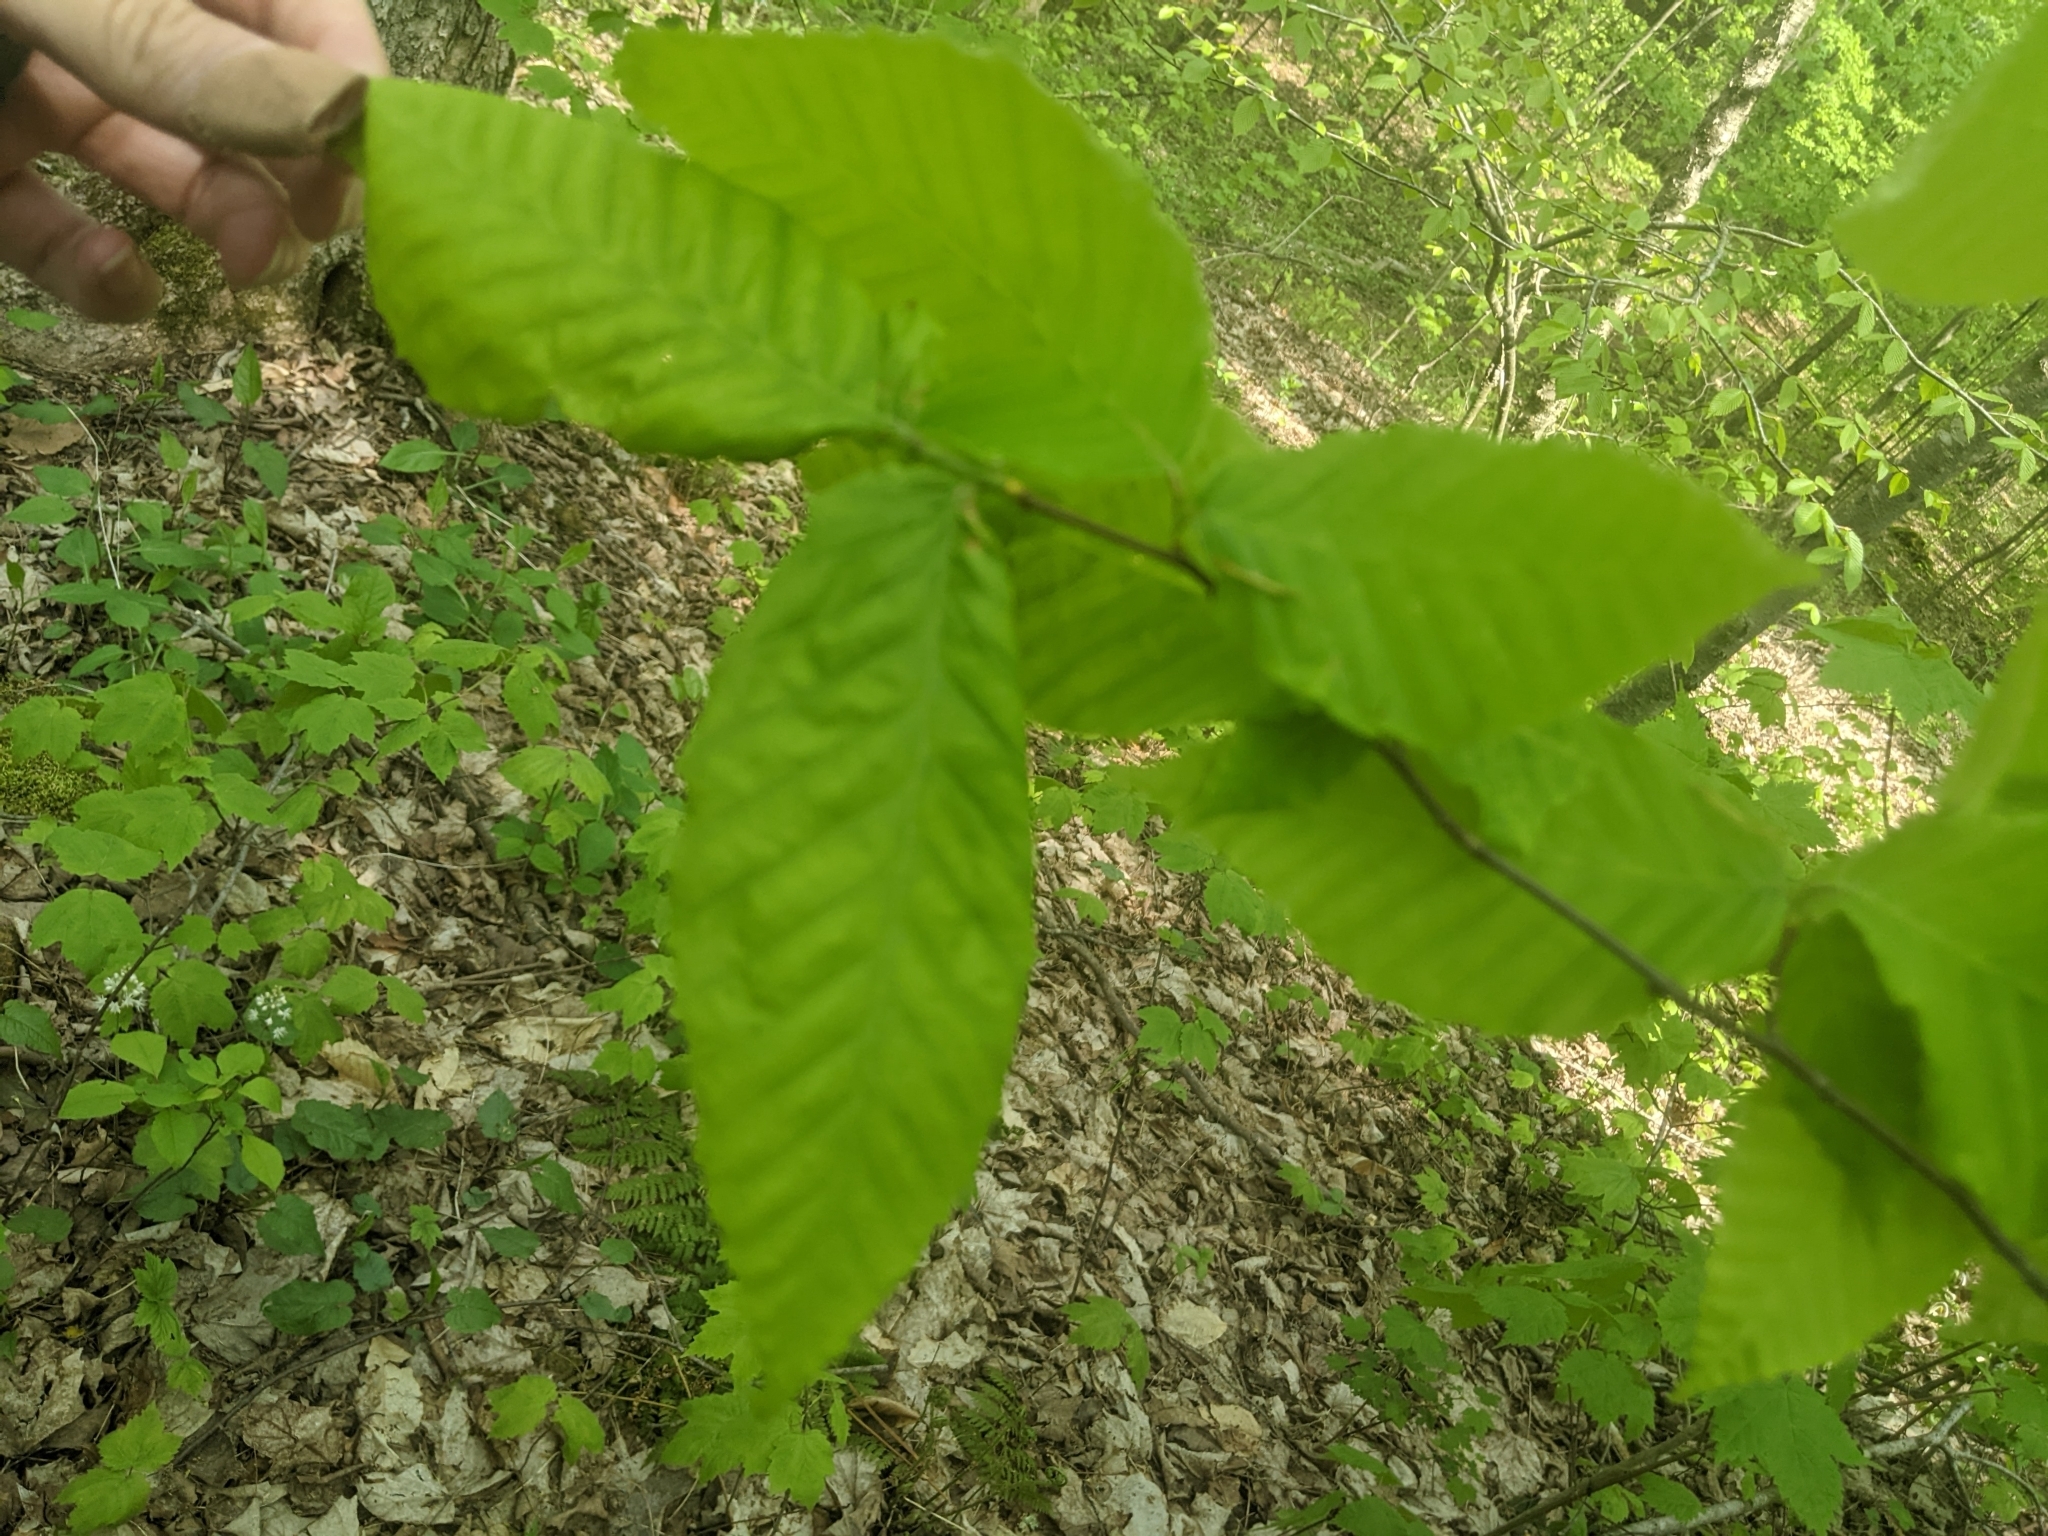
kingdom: Animalia
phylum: Nematoda
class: Chromadorea
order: Rhabditida
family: Anguinidae
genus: Litylenchus
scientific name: Litylenchus crenatae
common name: Beech leaf disease
